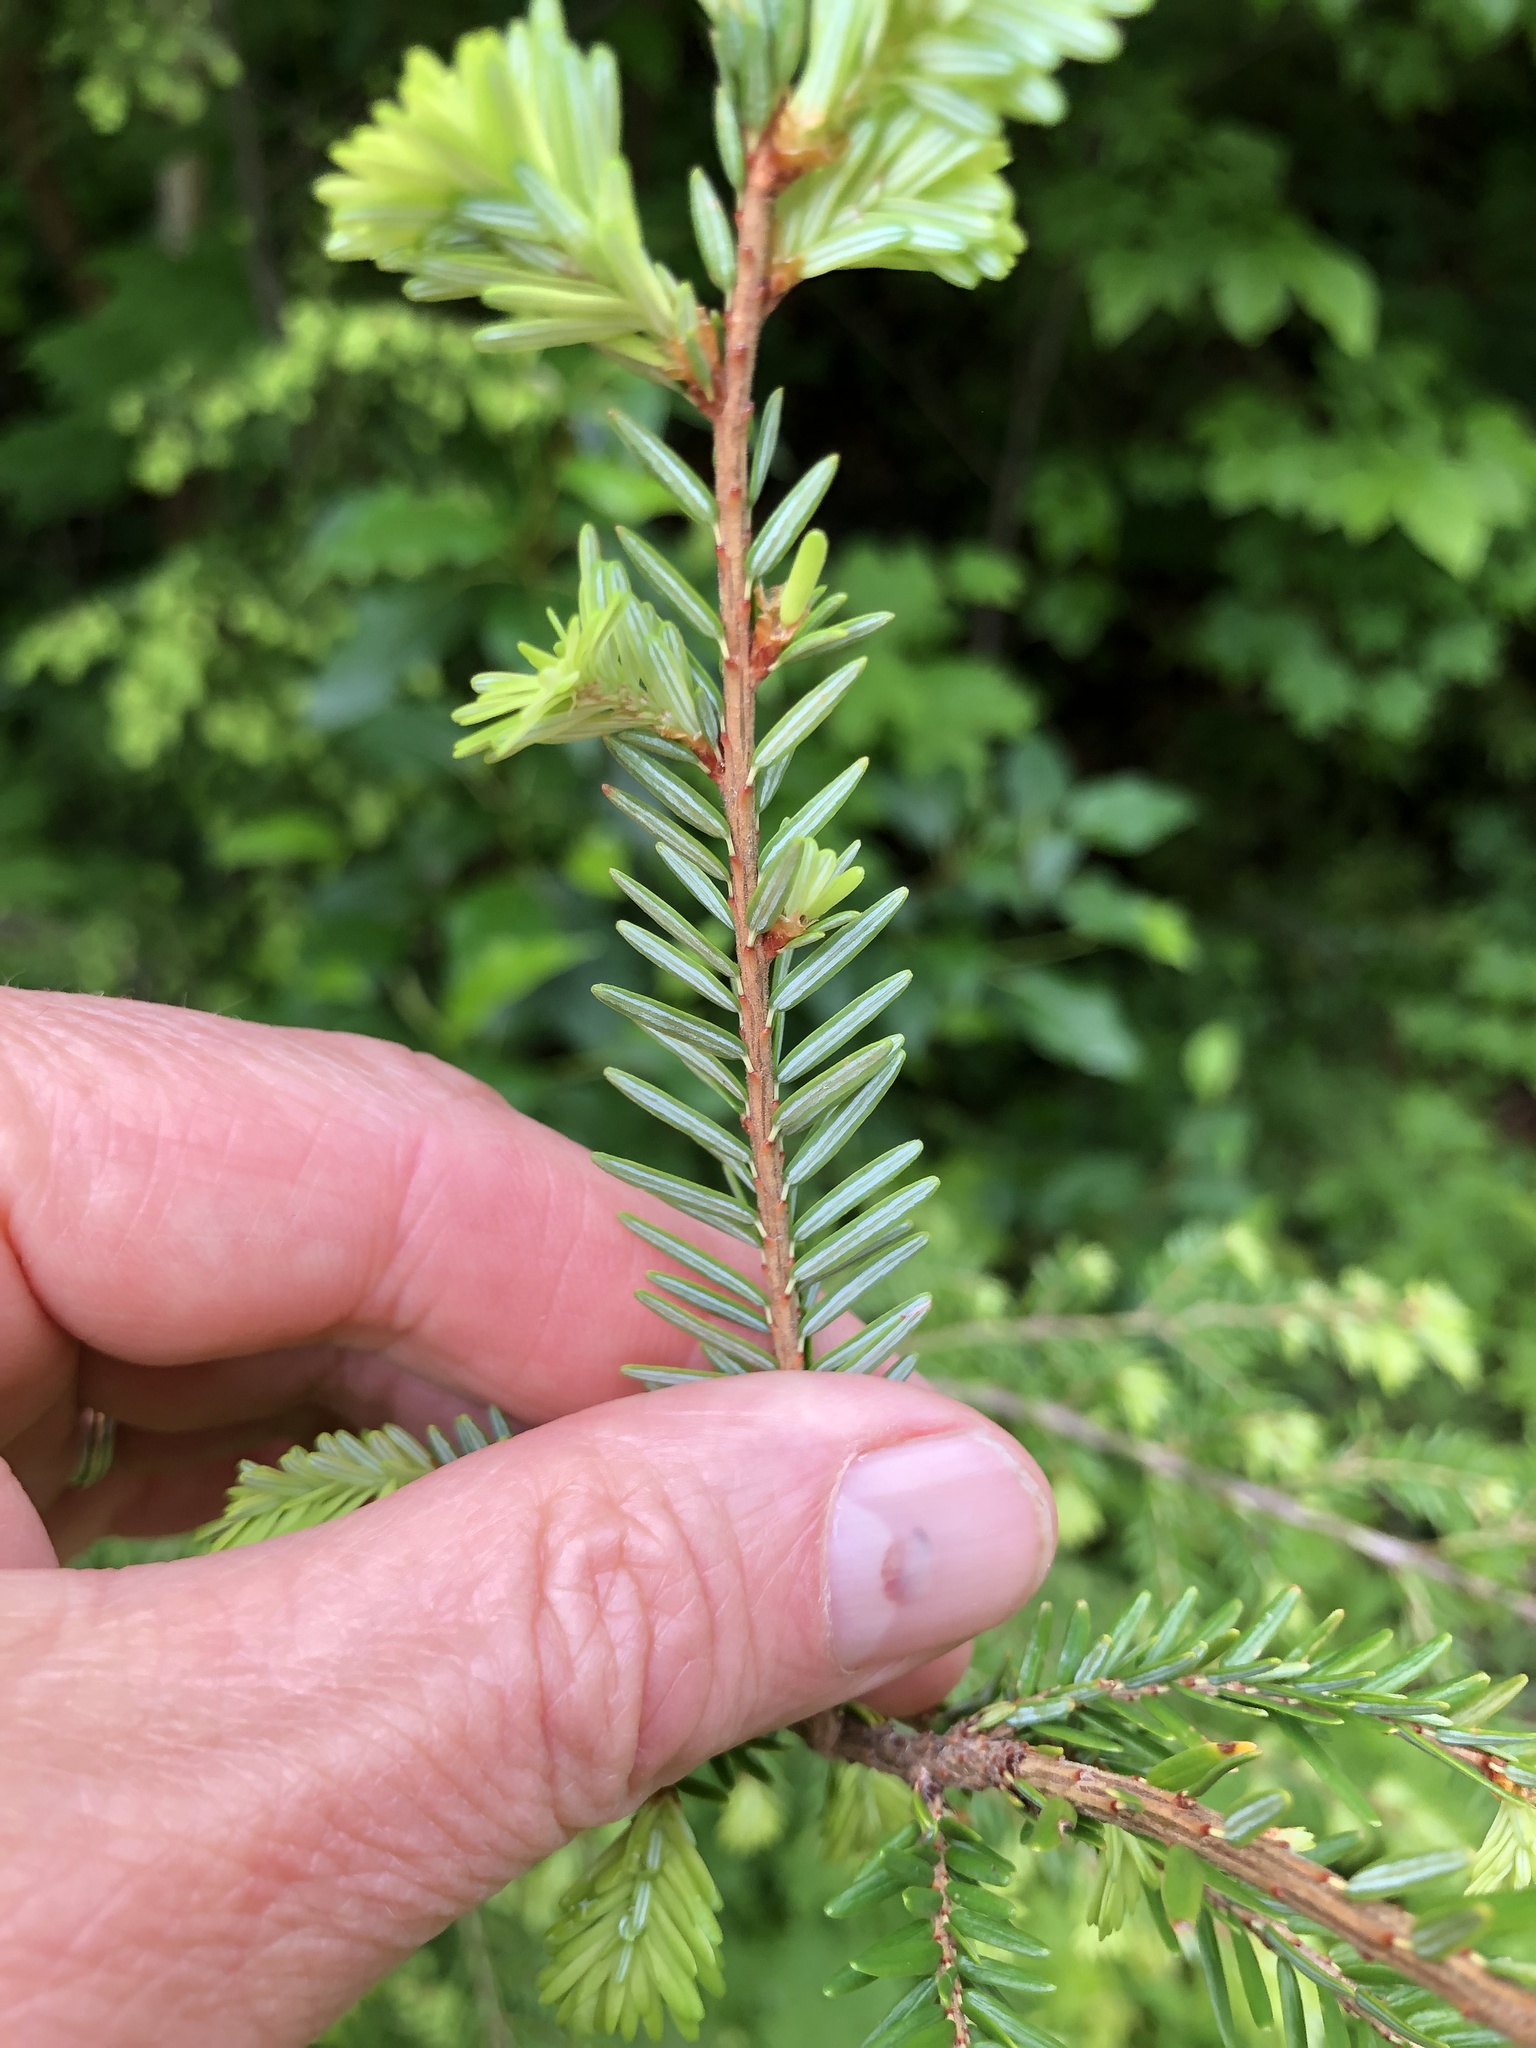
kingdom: Plantae
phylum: Tracheophyta
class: Pinopsida
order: Pinales
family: Pinaceae
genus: Tsuga
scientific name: Tsuga canadensis
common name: Eastern hemlock
